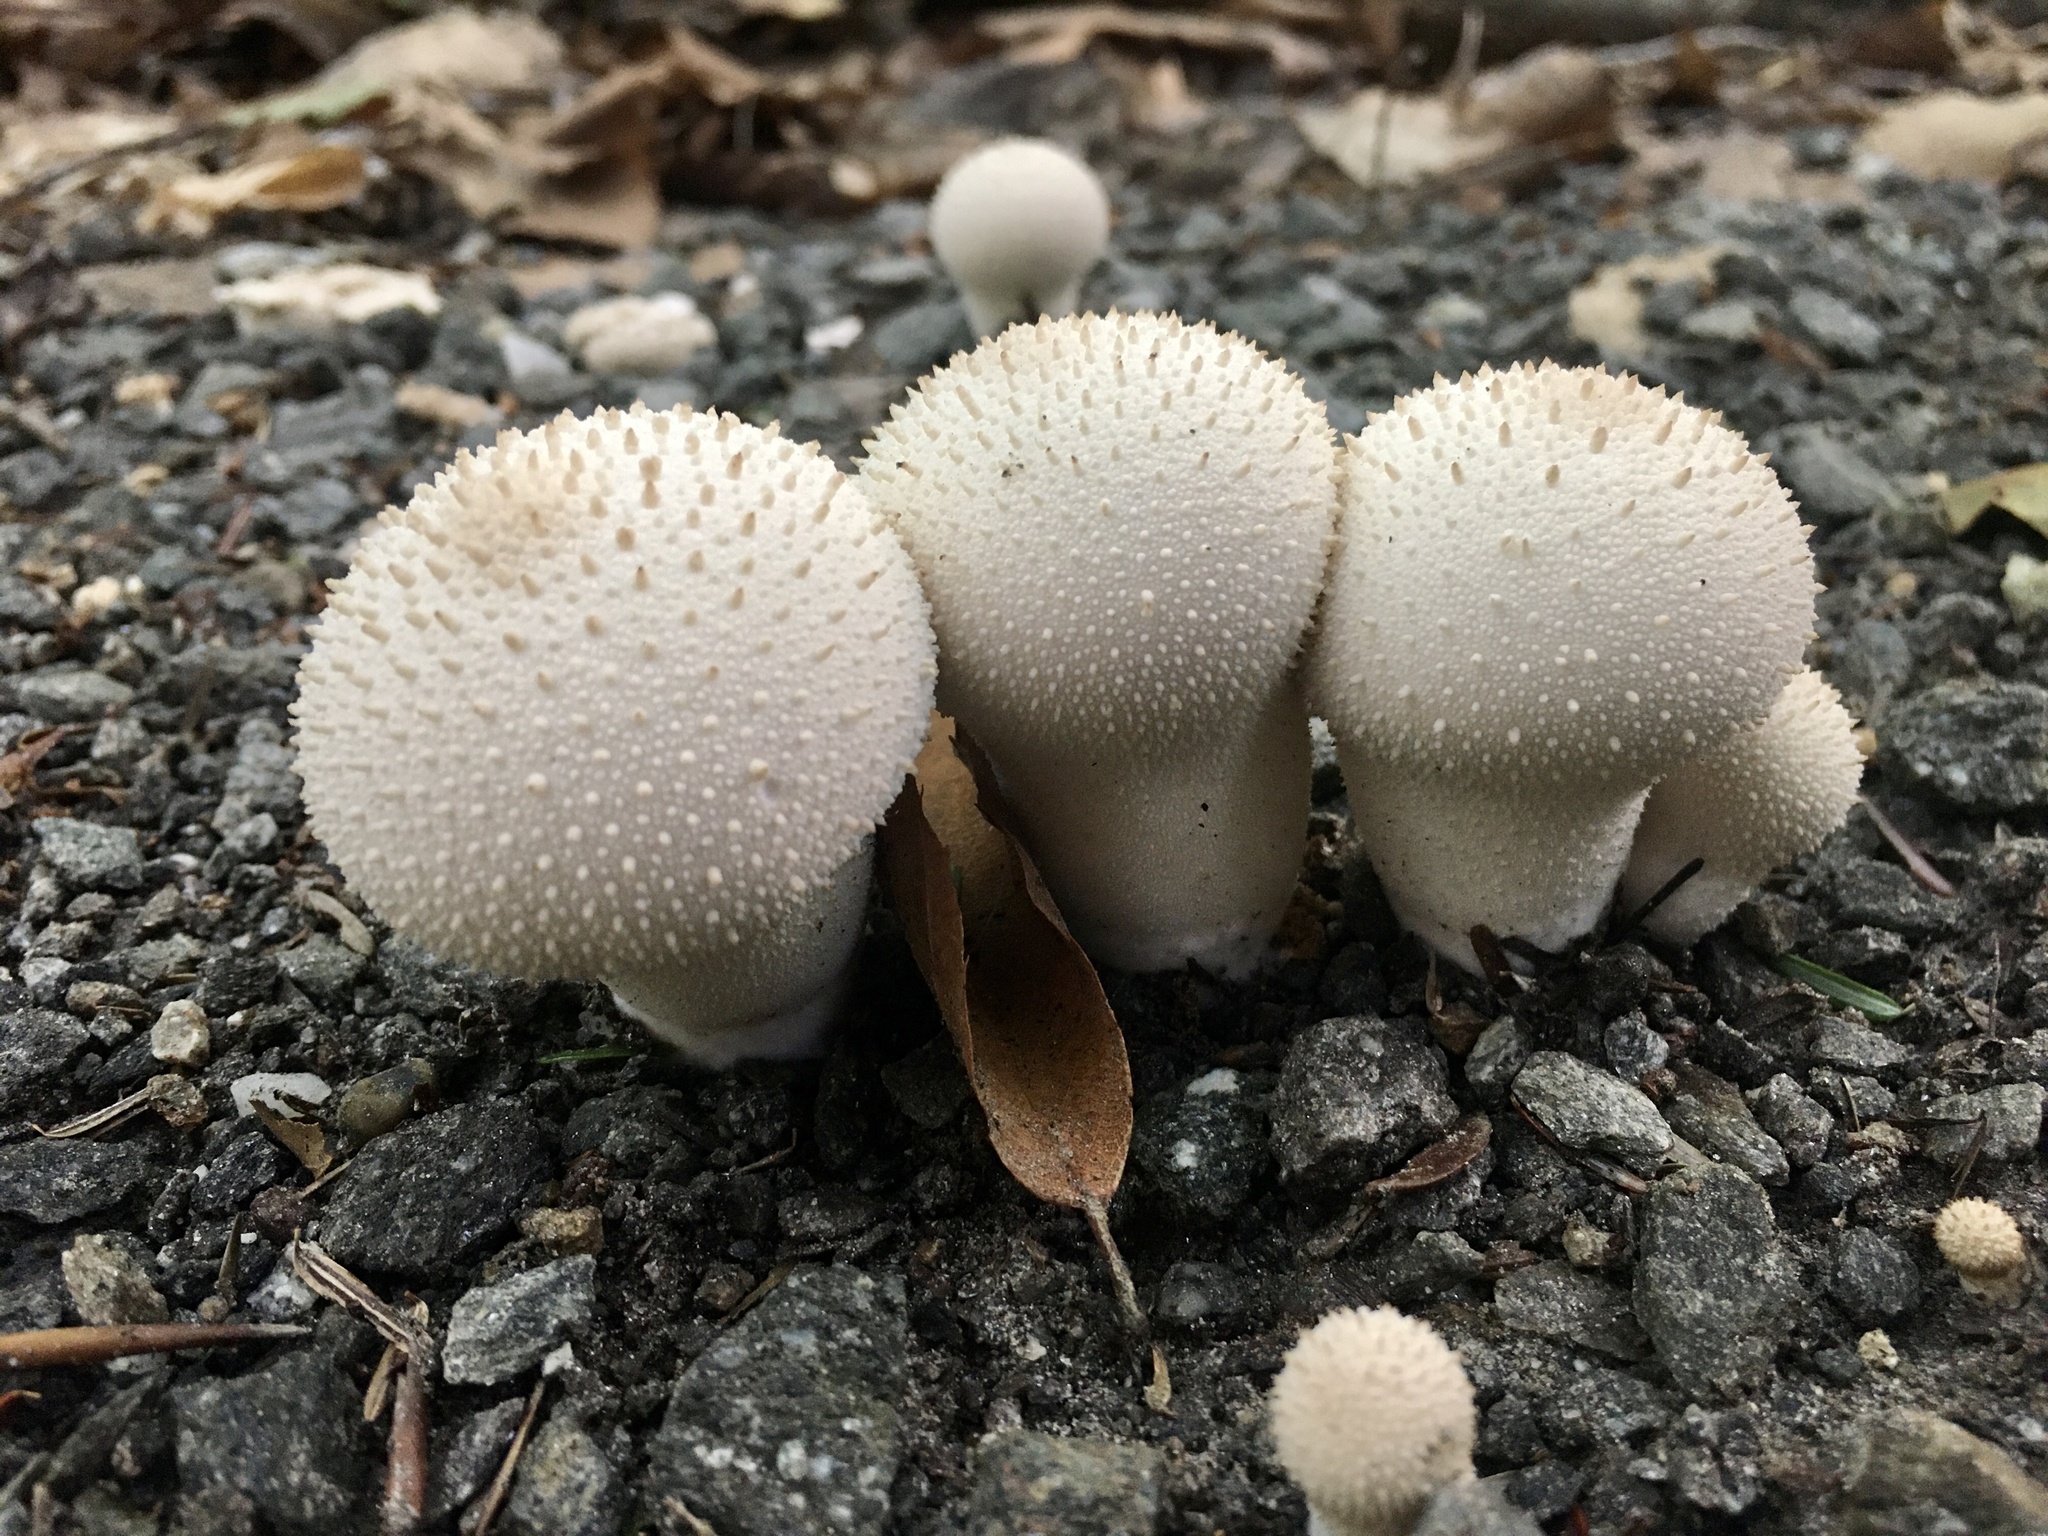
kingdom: Fungi
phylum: Basidiomycota
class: Agaricomycetes
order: Agaricales
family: Lycoperdaceae
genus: Lycoperdon
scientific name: Lycoperdon perlatum
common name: Common puffball
